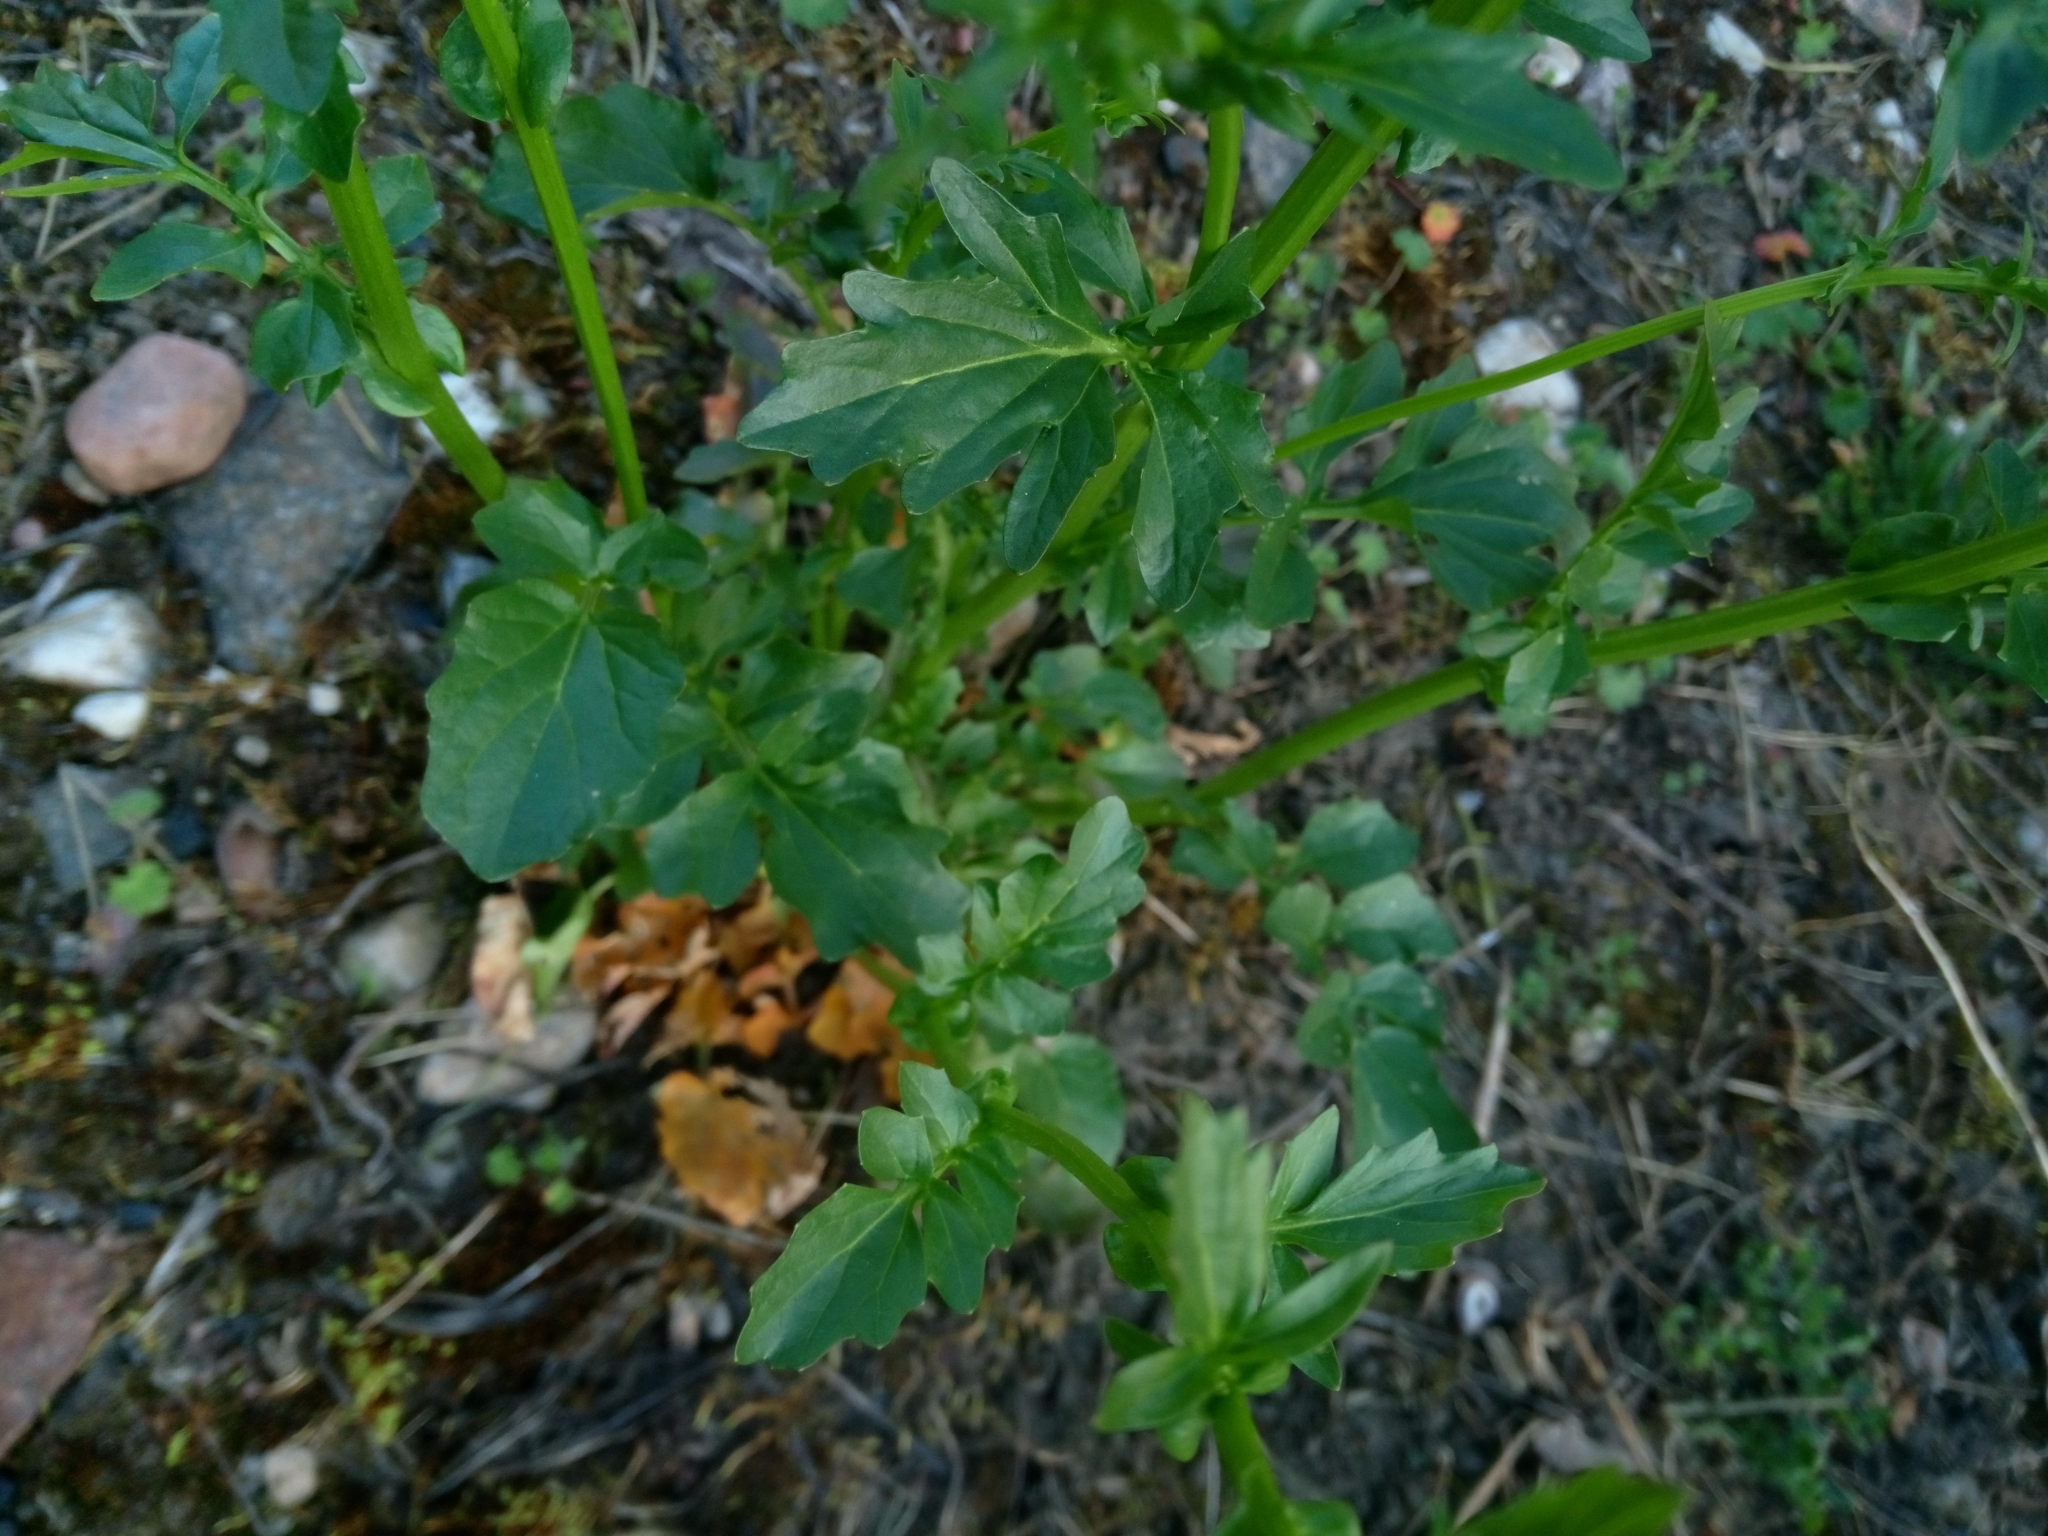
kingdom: Plantae
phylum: Tracheophyta
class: Magnoliopsida
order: Brassicales
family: Brassicaceae
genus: Barbarea
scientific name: Barbarea vulgaris
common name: Cressy-greens
